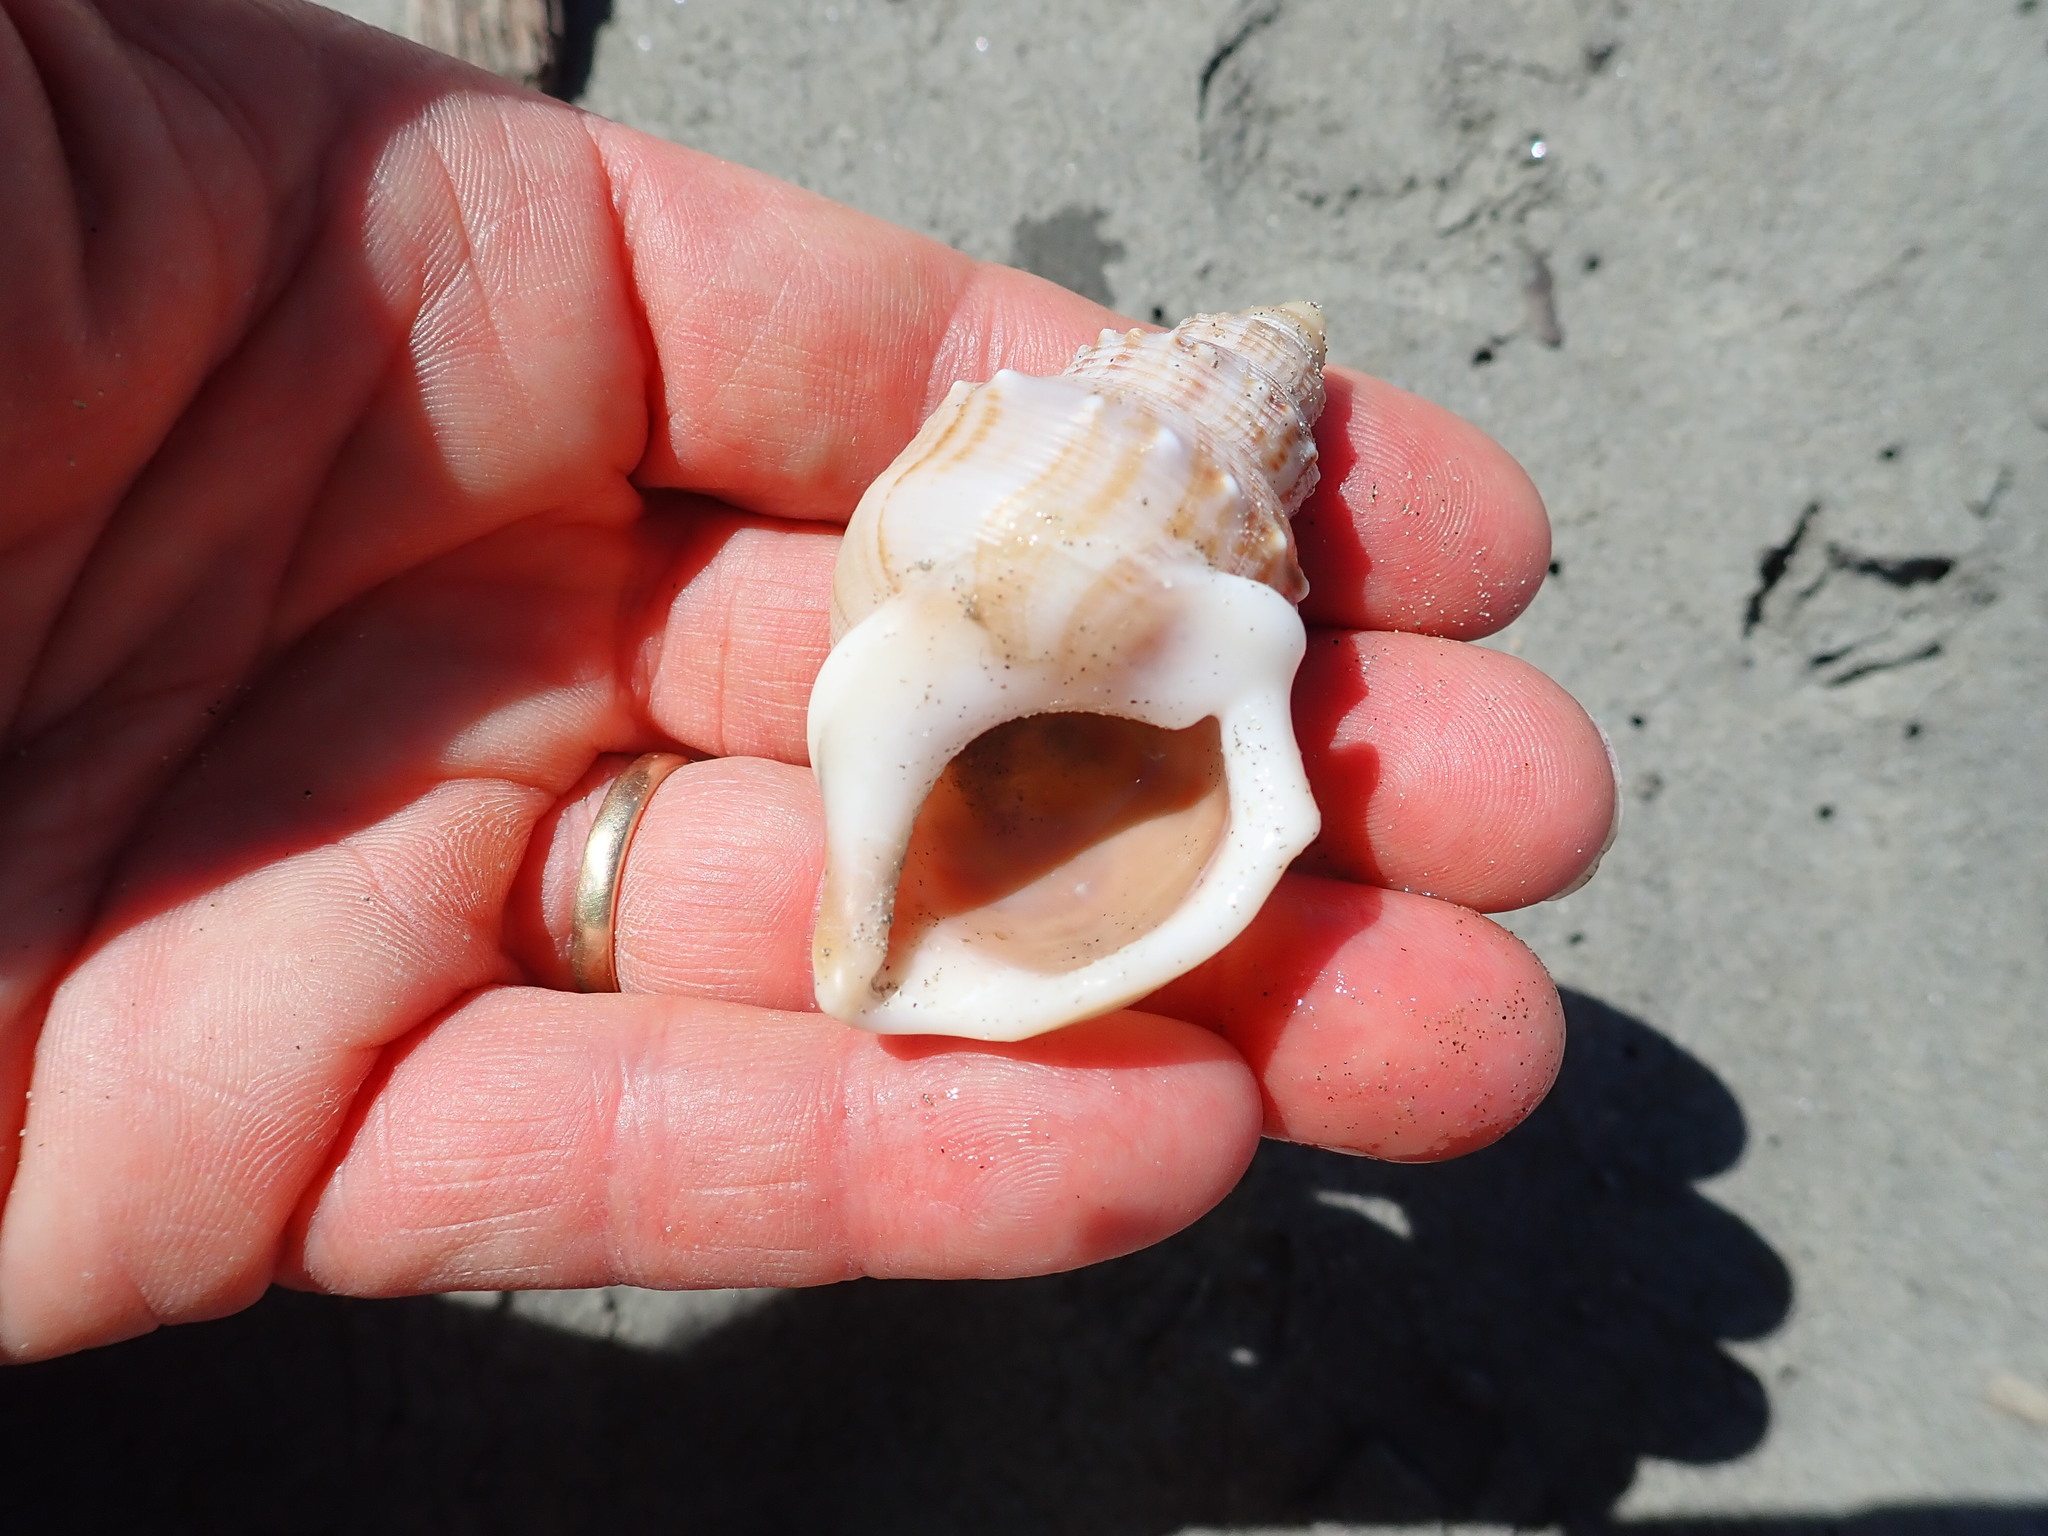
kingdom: Animalia
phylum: Mollusca
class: Gastropoda
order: Littorinimorpha
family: Struthiolariidae
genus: Struthiolaria
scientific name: Struthiolaria papulosa
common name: Large ostrich foot
